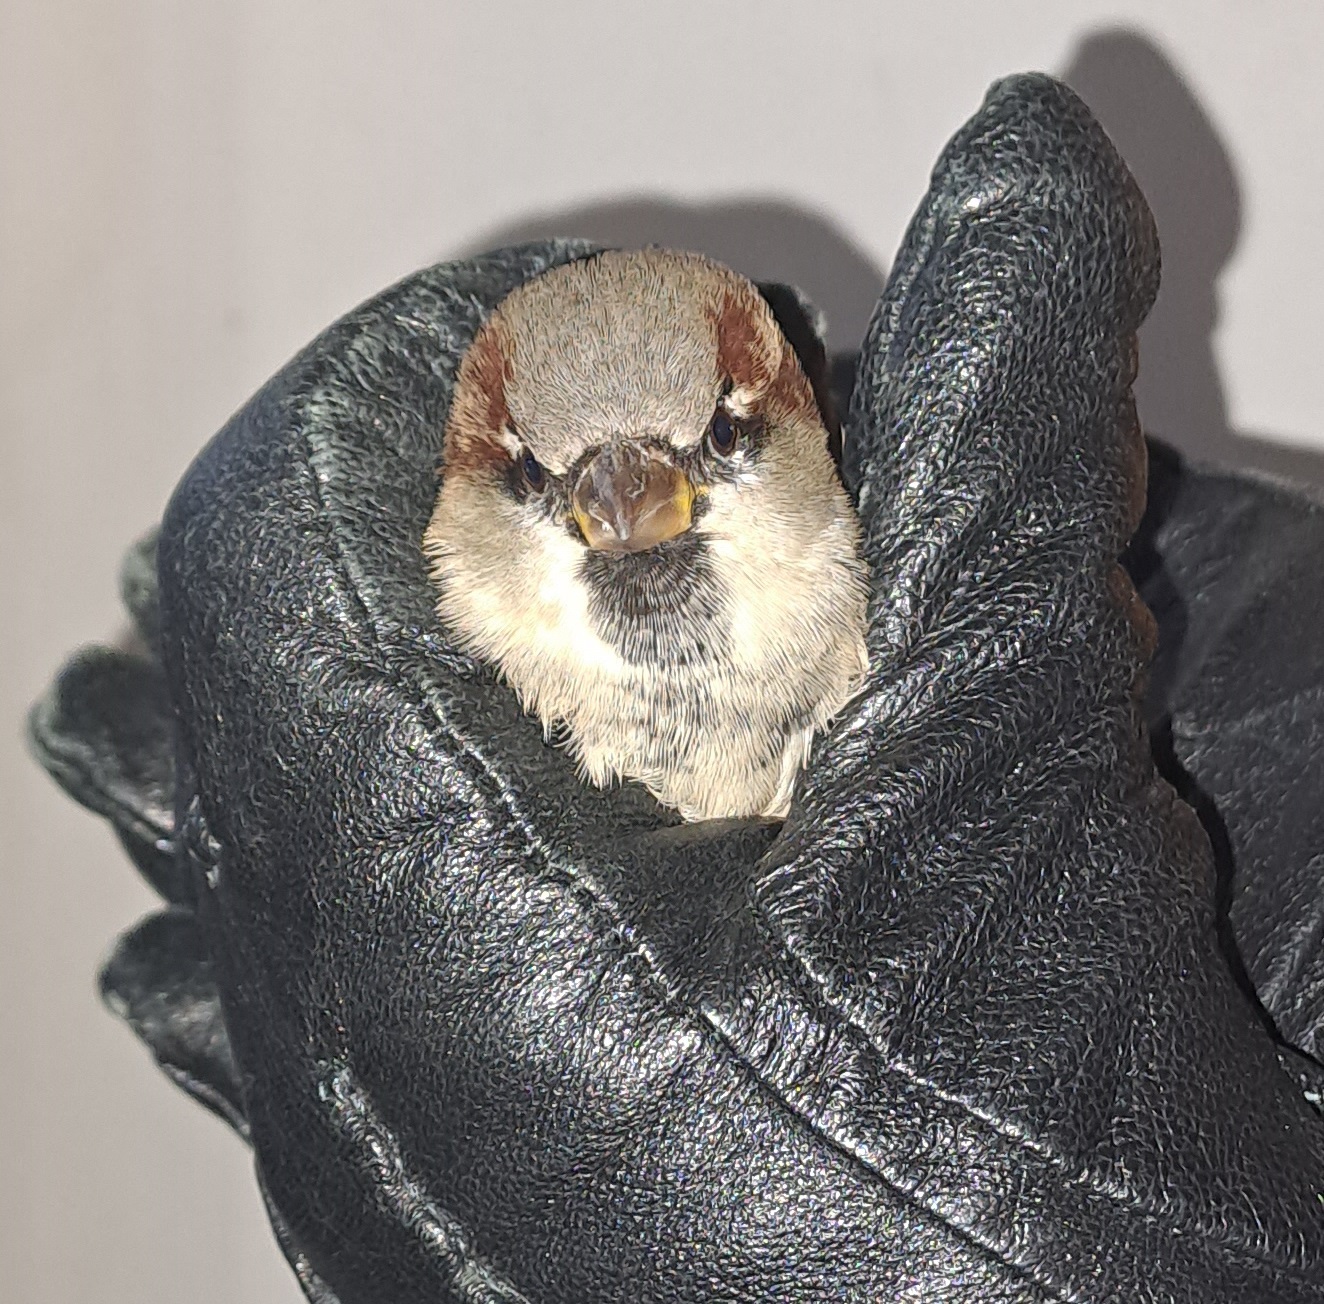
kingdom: Animalia
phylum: Chordata
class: Aves
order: Passeriformes
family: Passeridae
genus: Passer
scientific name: Passer domesticus
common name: House sparrow
